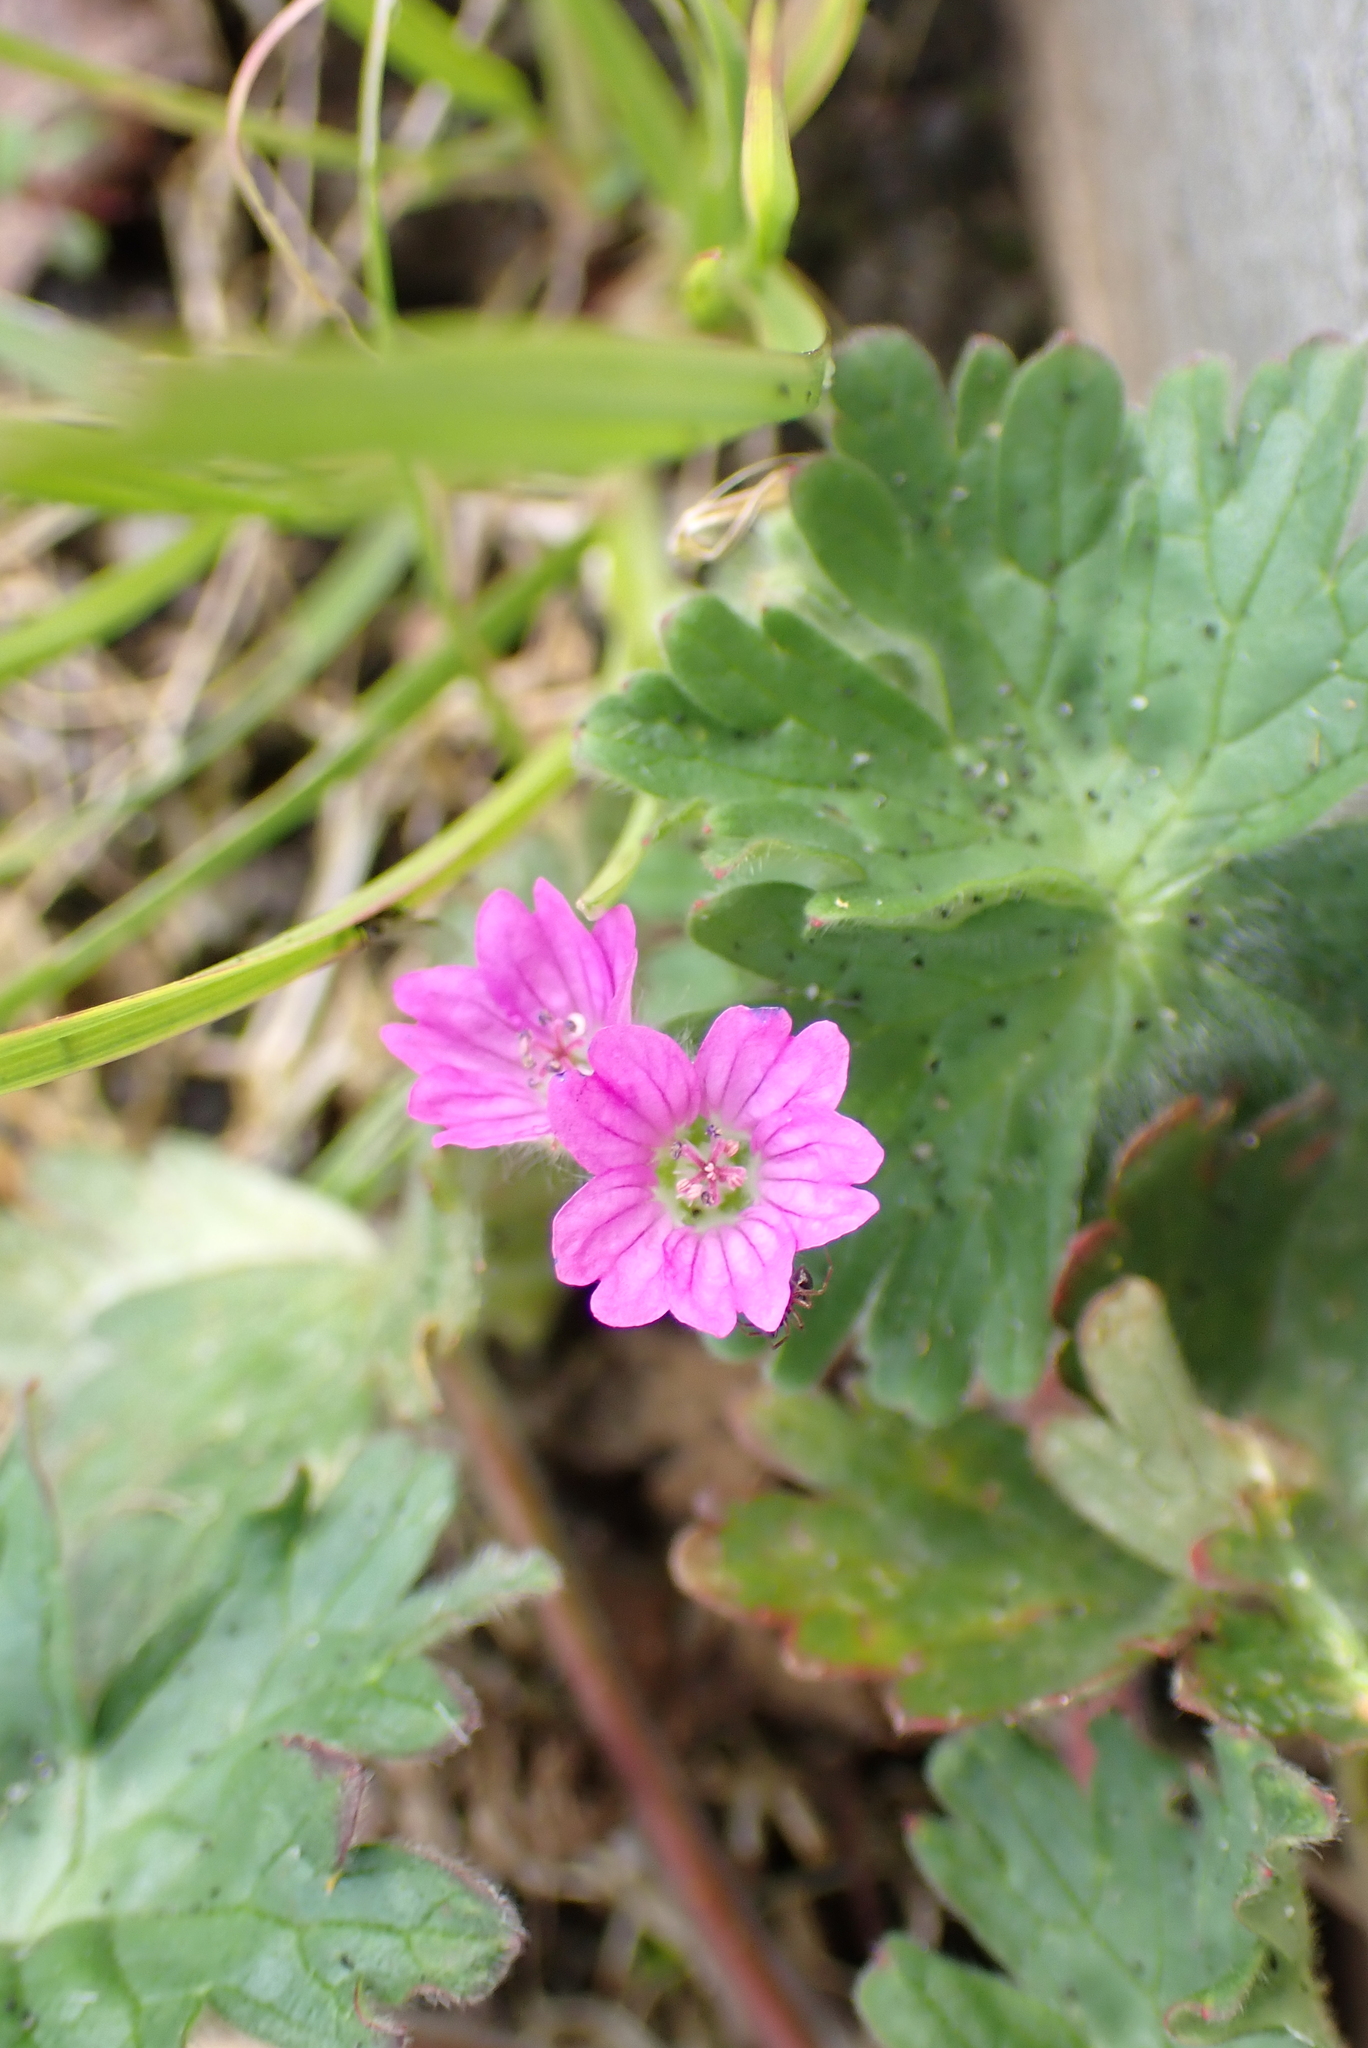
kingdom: Plantae
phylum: Tracheophyta
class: Magnoliopsida
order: Geraniales
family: Geraniaceae
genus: Geranium
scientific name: Geranium molle
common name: Dove's-foot crane's-bill
